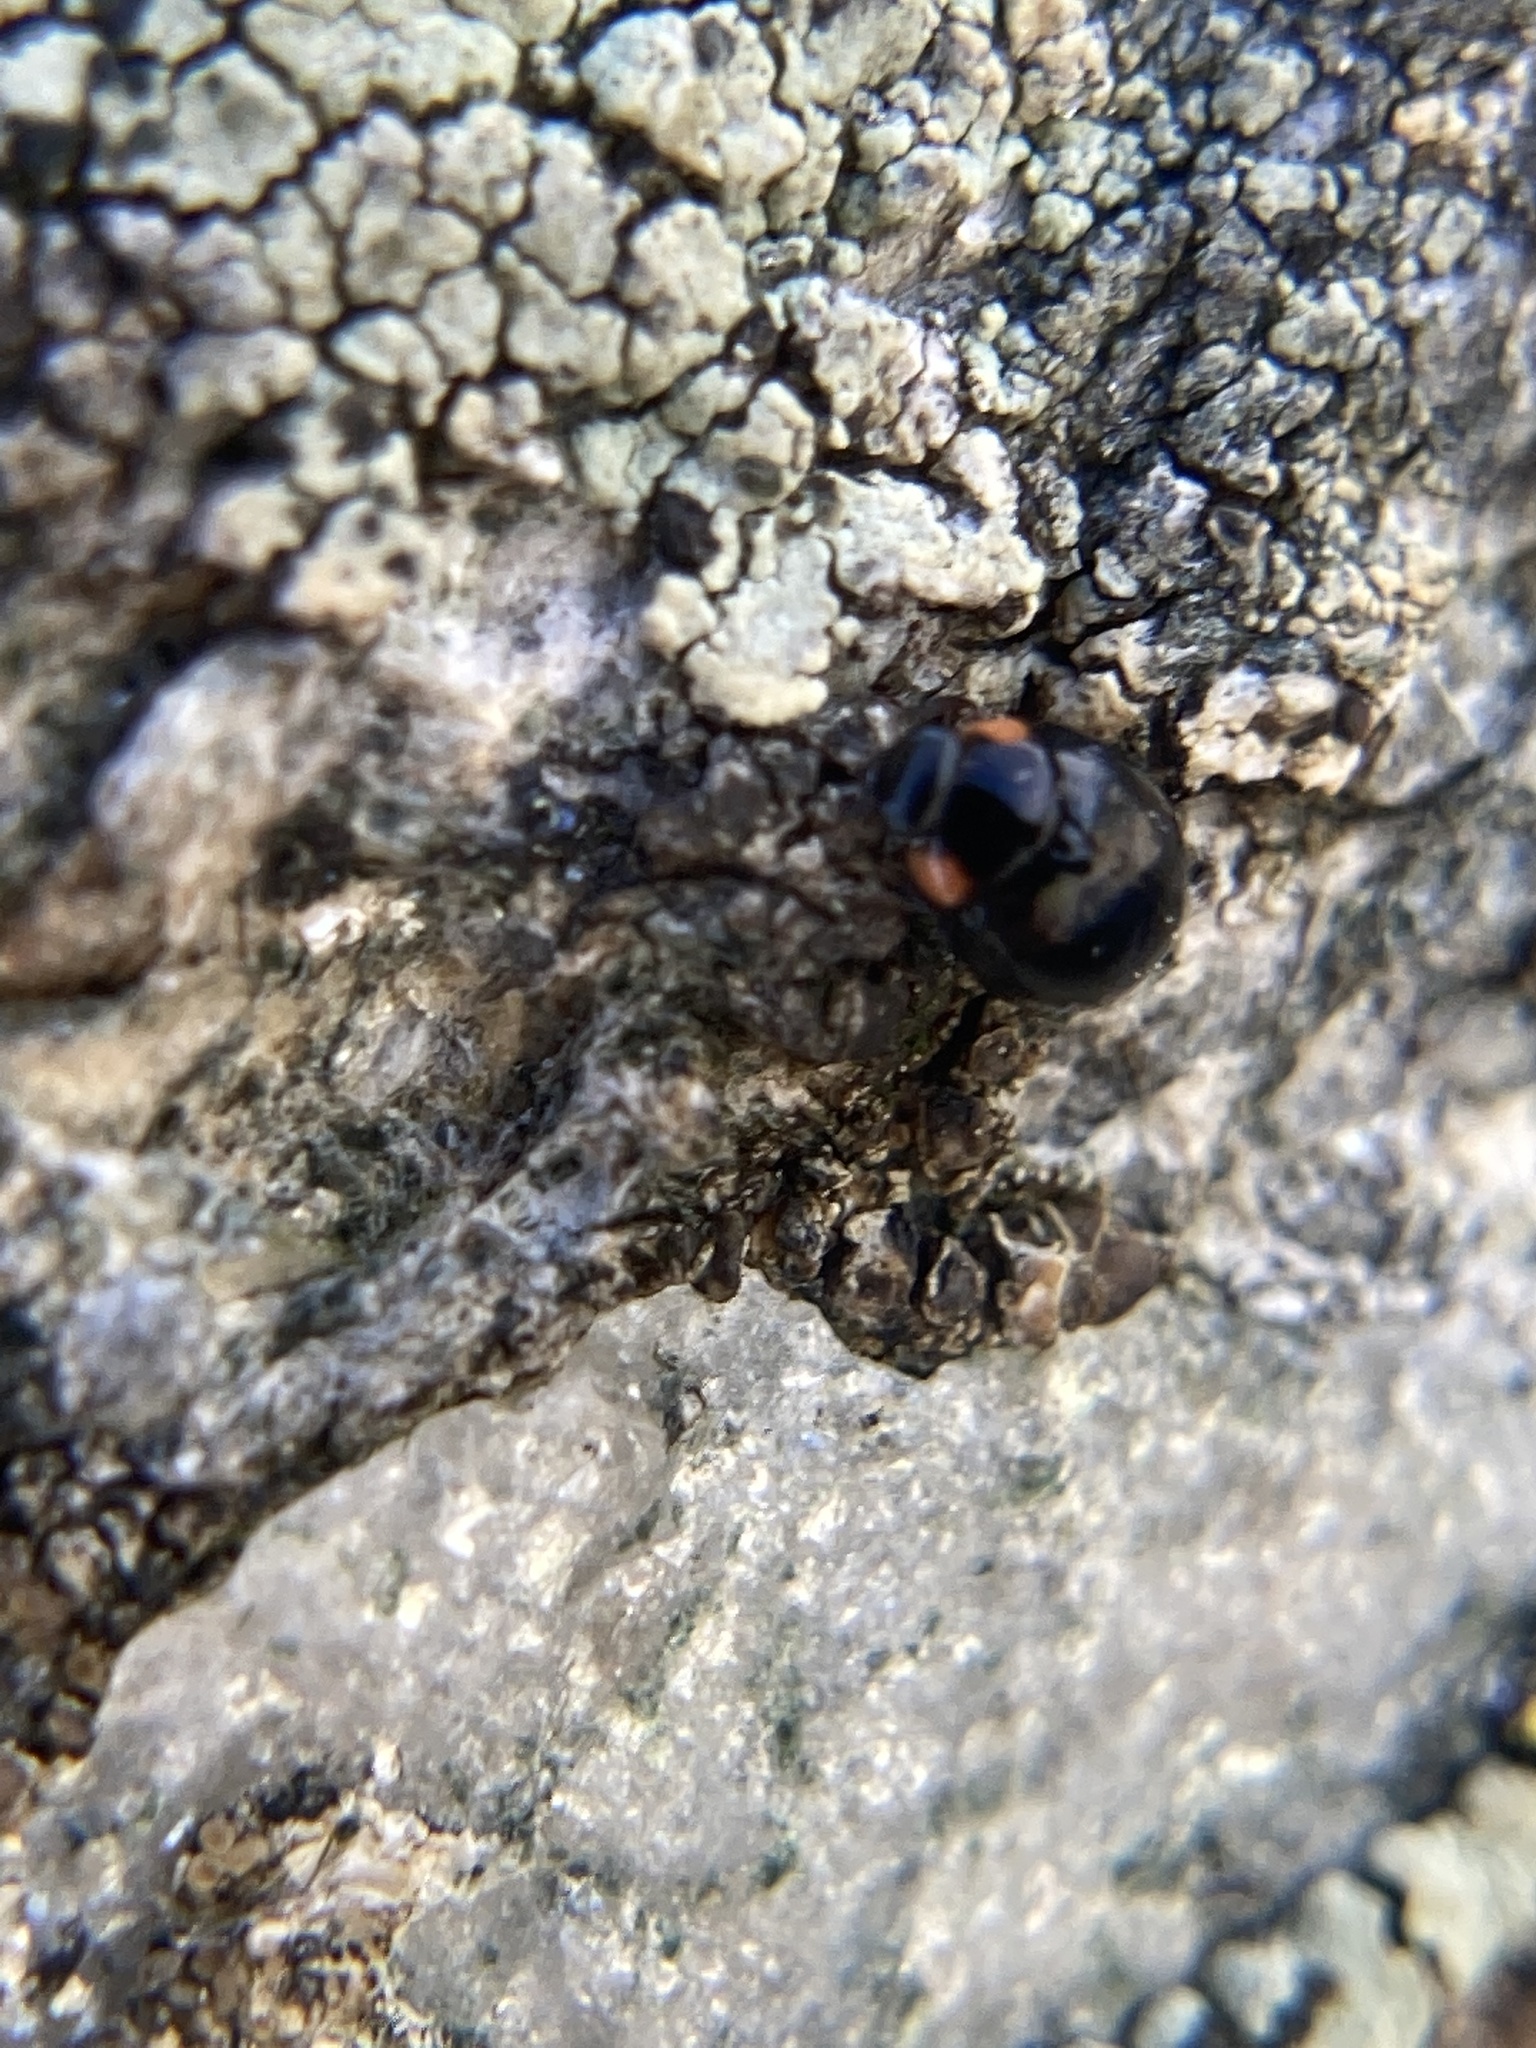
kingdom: Animalia
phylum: Arthropoda
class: Insecta
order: Coleoptera
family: Coccinellidae
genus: Hyperaspis
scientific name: Hyperaspis bigeminata
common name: Bigeminate sigil lady beetle
